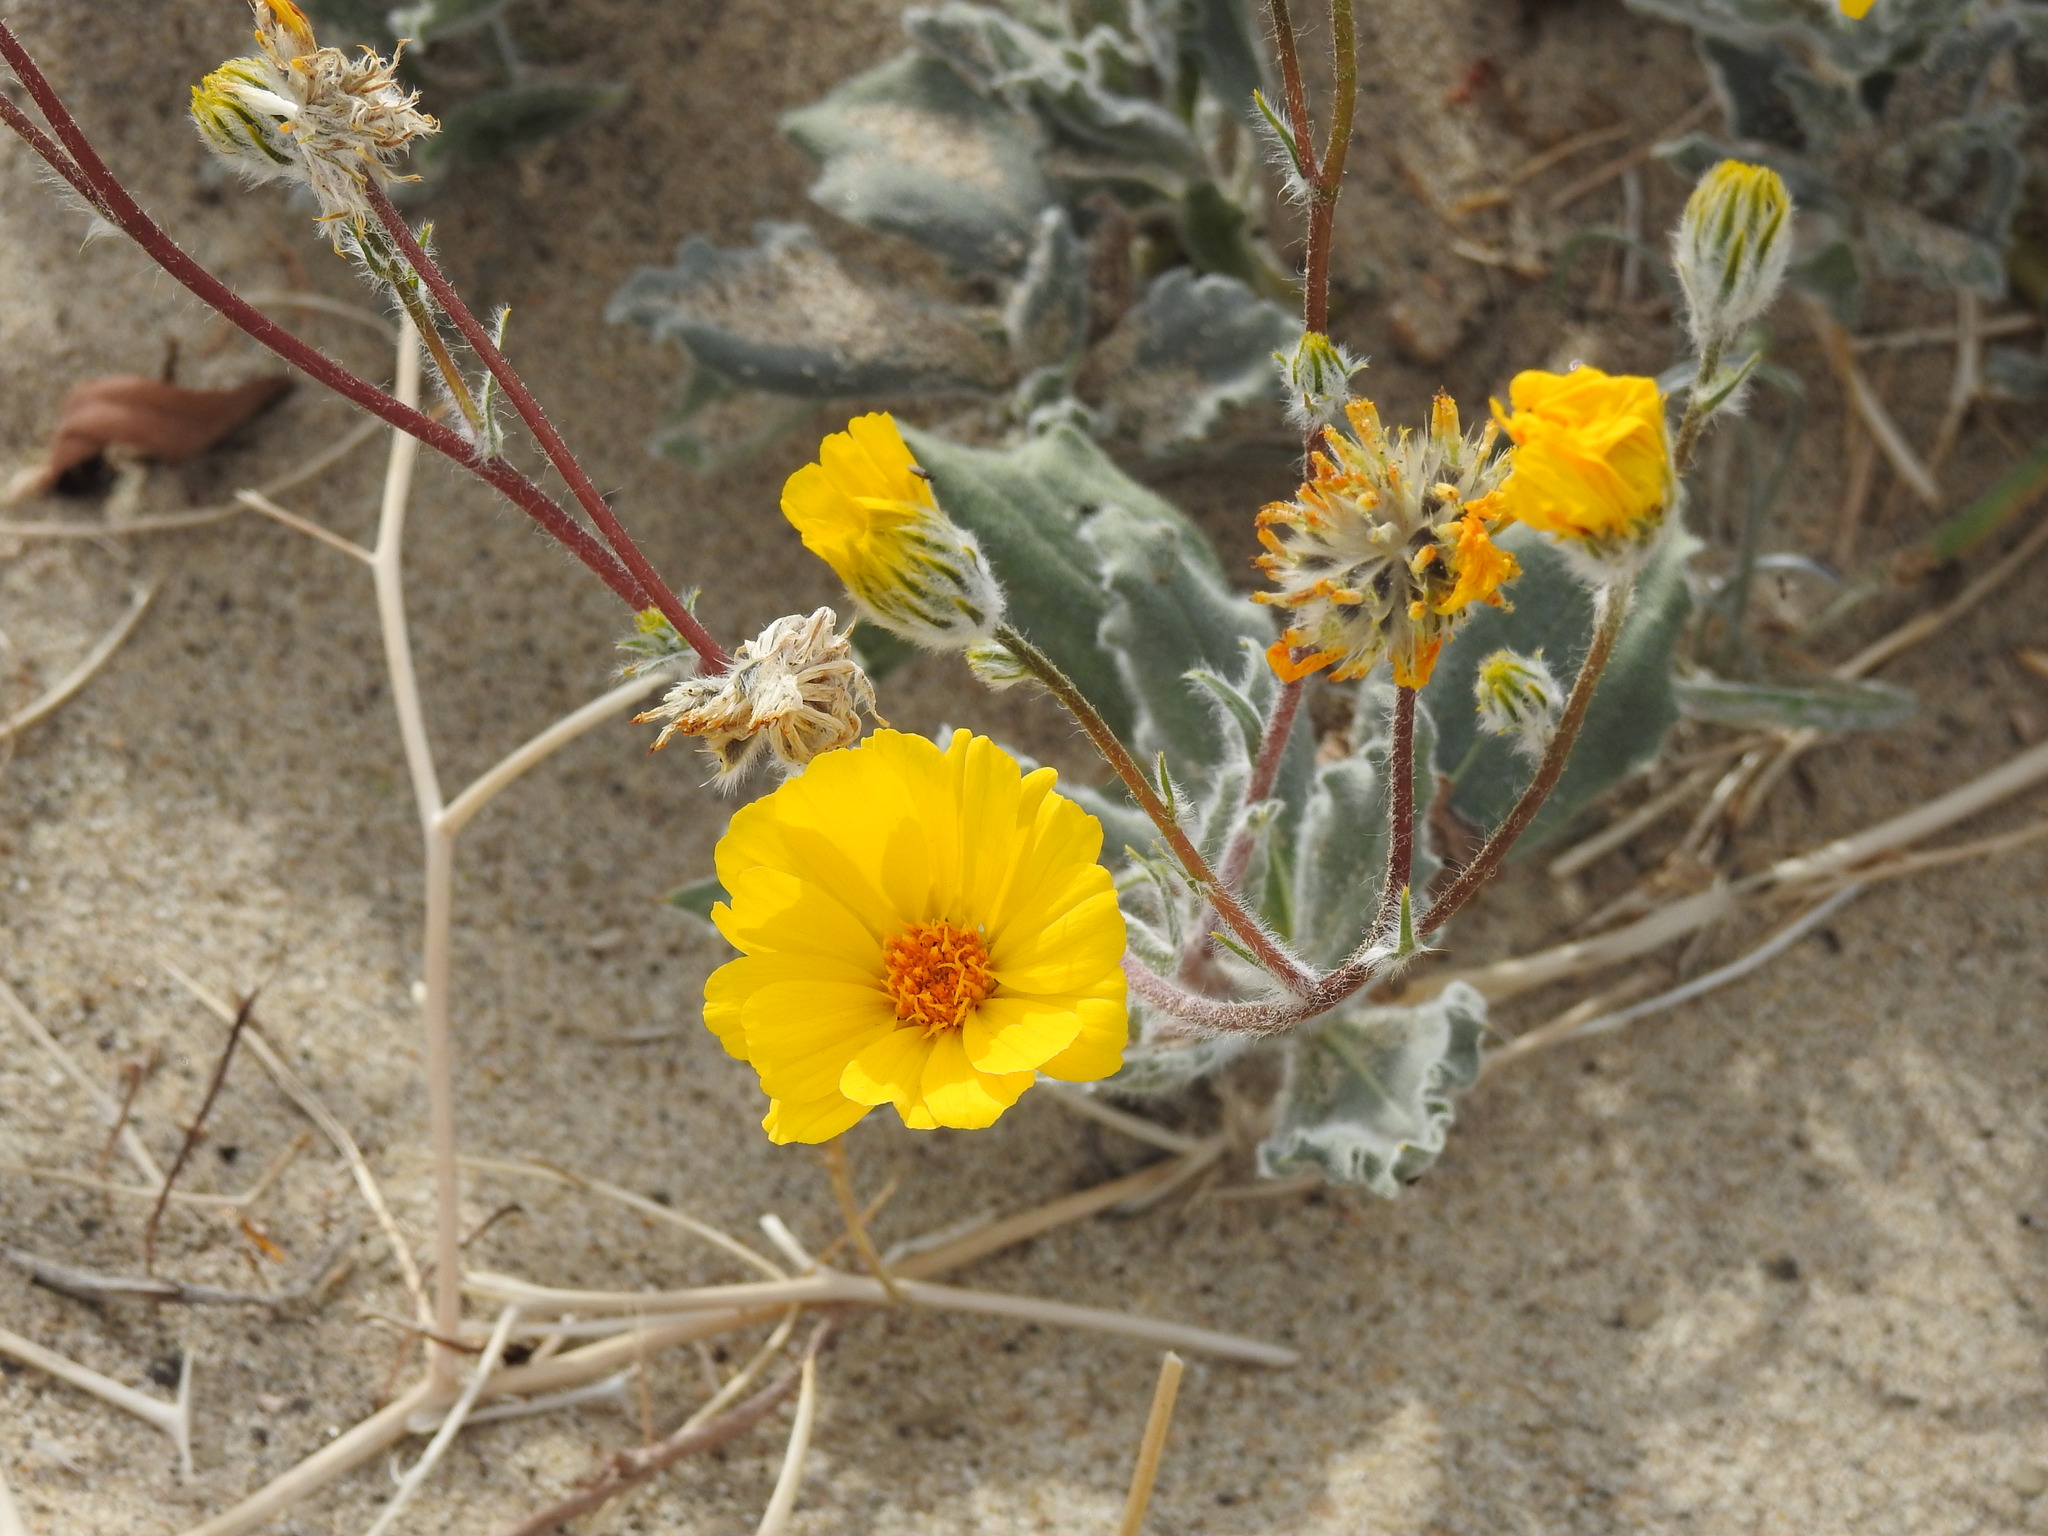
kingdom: Plantae
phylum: Tracheophyta
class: Magnoliopsida
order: Asterales
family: Asteraceae
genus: Geraea
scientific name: Geraea canescens
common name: Desert-gold
